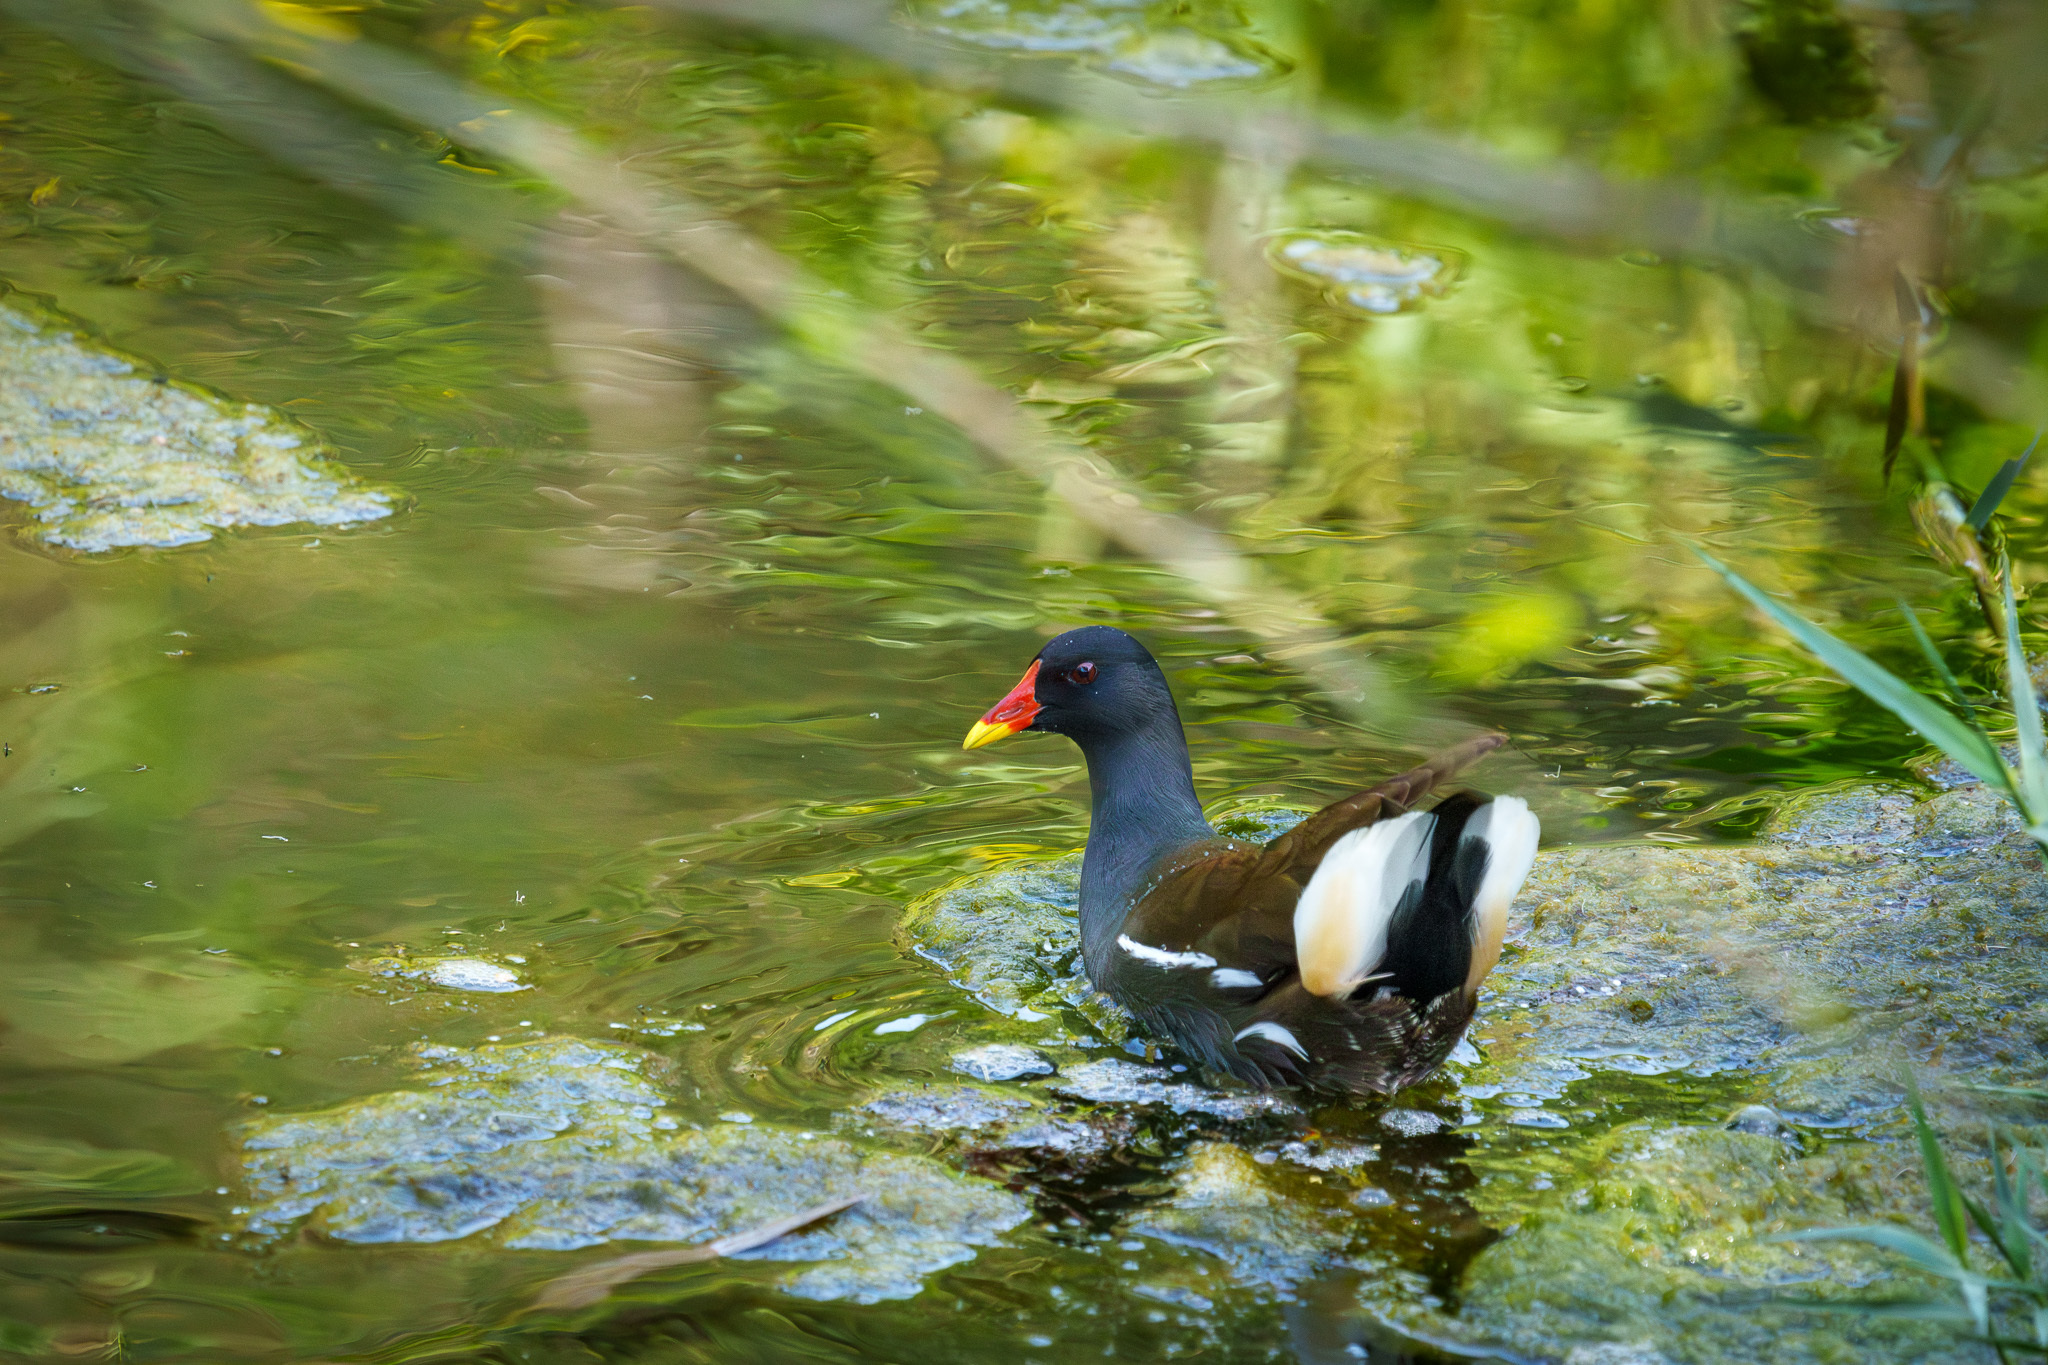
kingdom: Animalia
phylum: Chordata
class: Aves
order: Gruiformes
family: Rallidae
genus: Gallinula
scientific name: Gallinula chloropus
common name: Common moorhen
